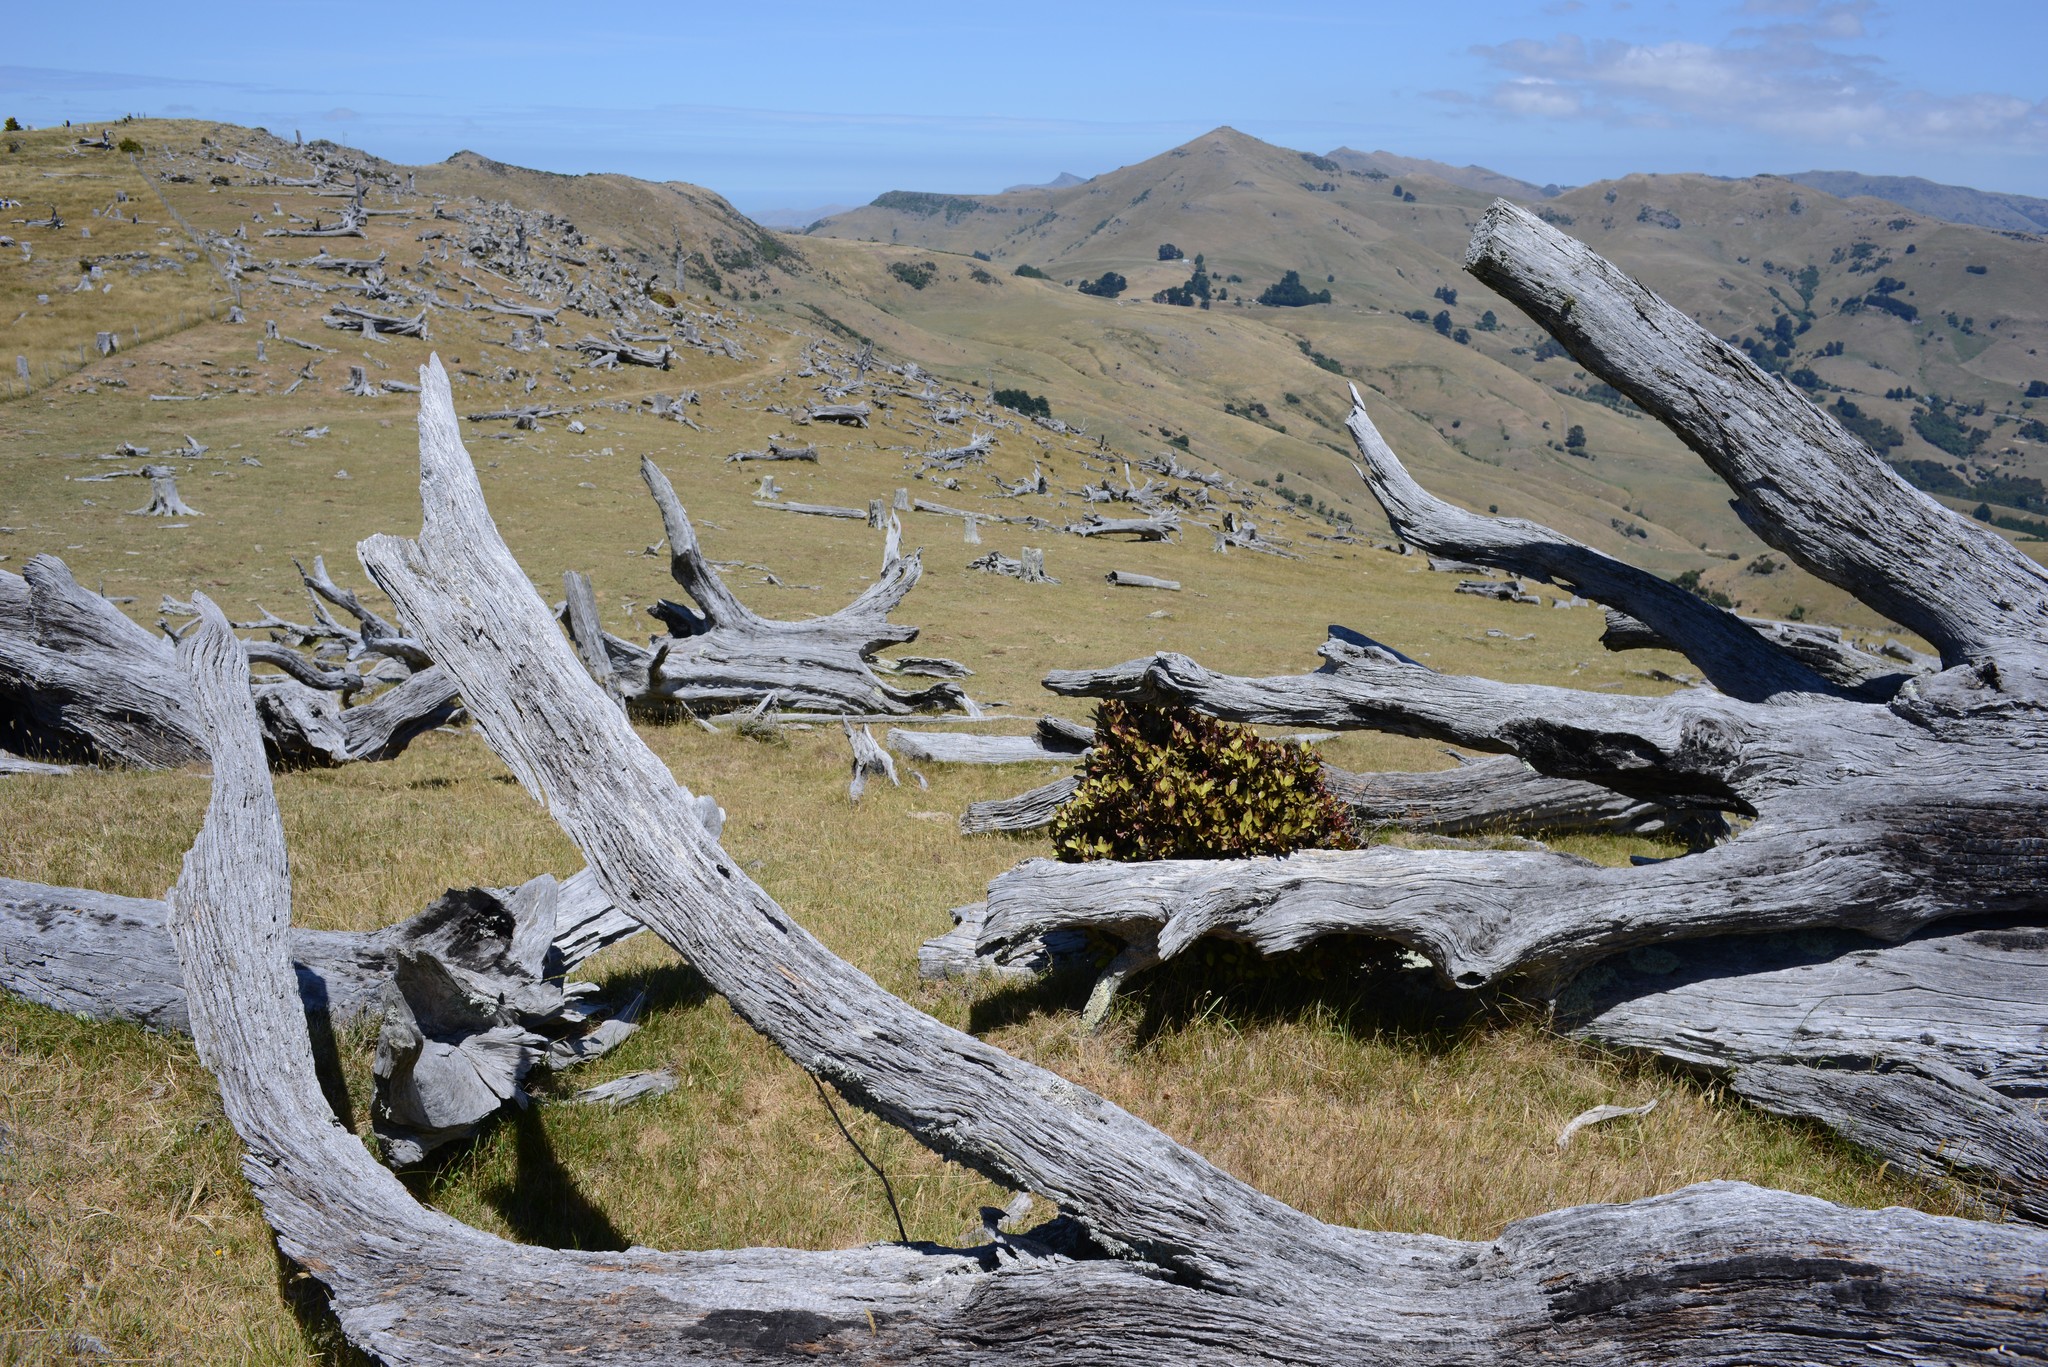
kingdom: Plantae
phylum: Tracheophyta
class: Magnoliopsida
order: Canellales
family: Winteraceae
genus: Pseudowintera
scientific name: Pseudowintera colorata
